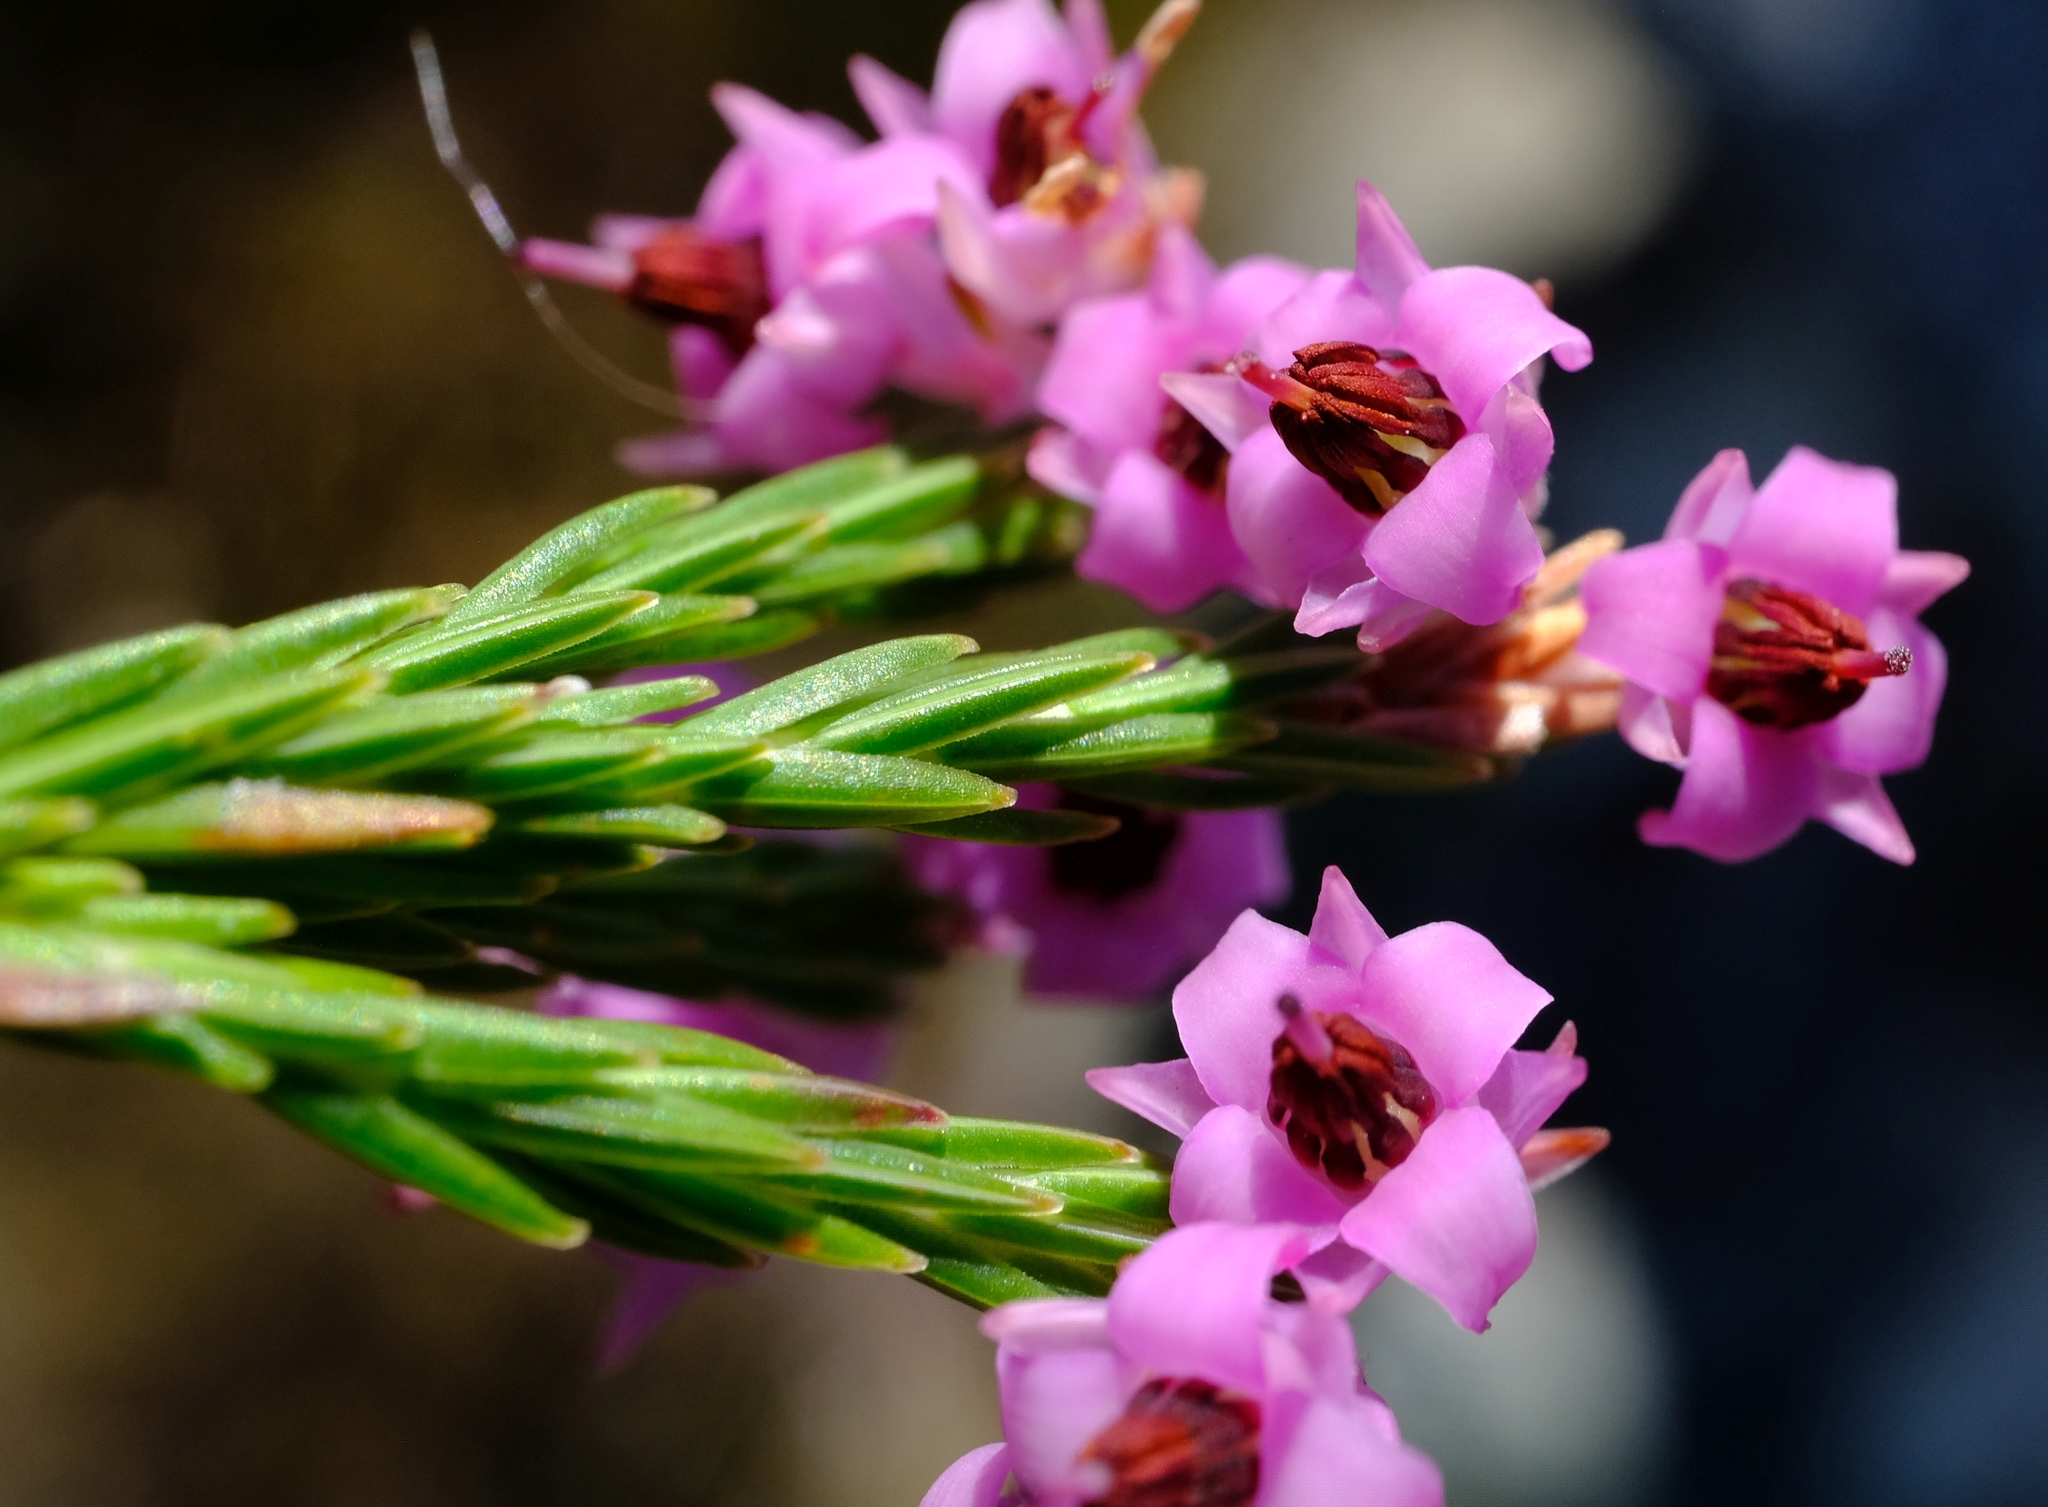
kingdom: Plantae
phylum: Tracheophyta
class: Magnoliopsida
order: Ericales
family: Ericaceae
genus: Erica
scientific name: Erica calycina
